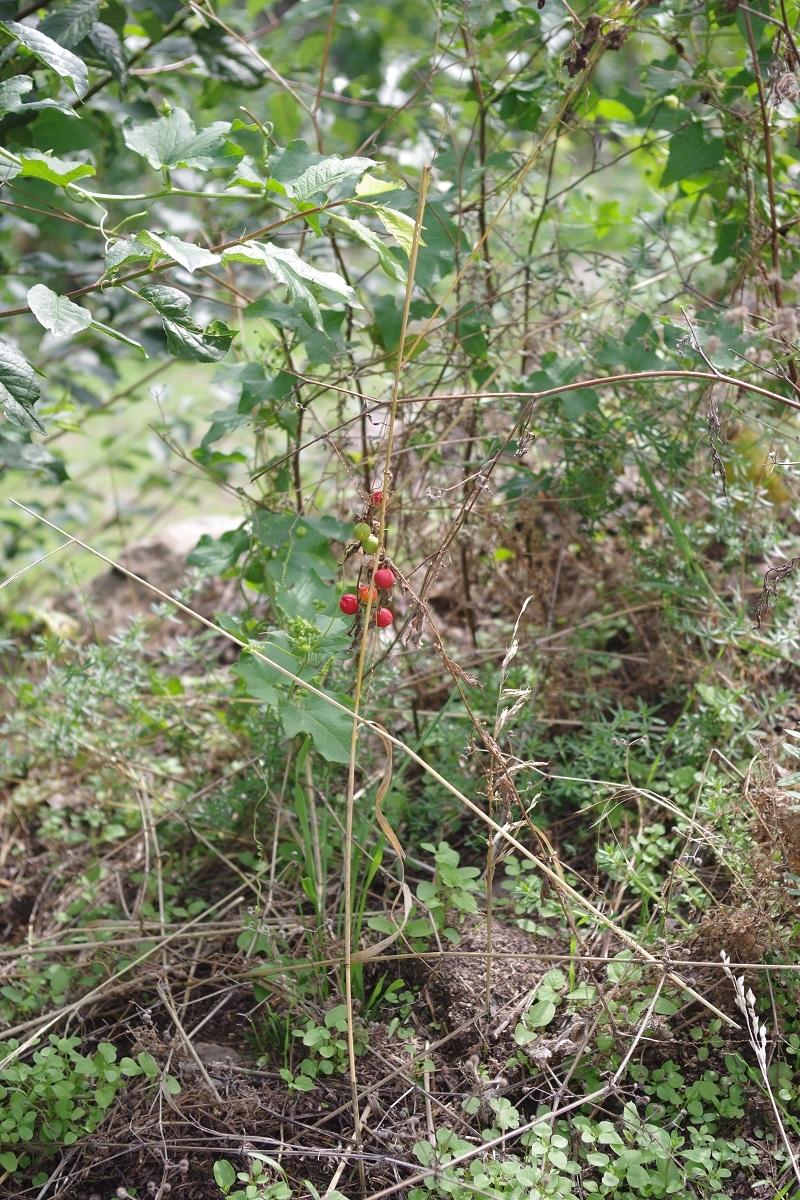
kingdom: Plantae
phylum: Tracheophyta
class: Magnoliopsida
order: Cucurbitales
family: Cucurbitaceae
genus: Bryonia
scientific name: Bryonia cretica
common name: Cretan bryony
